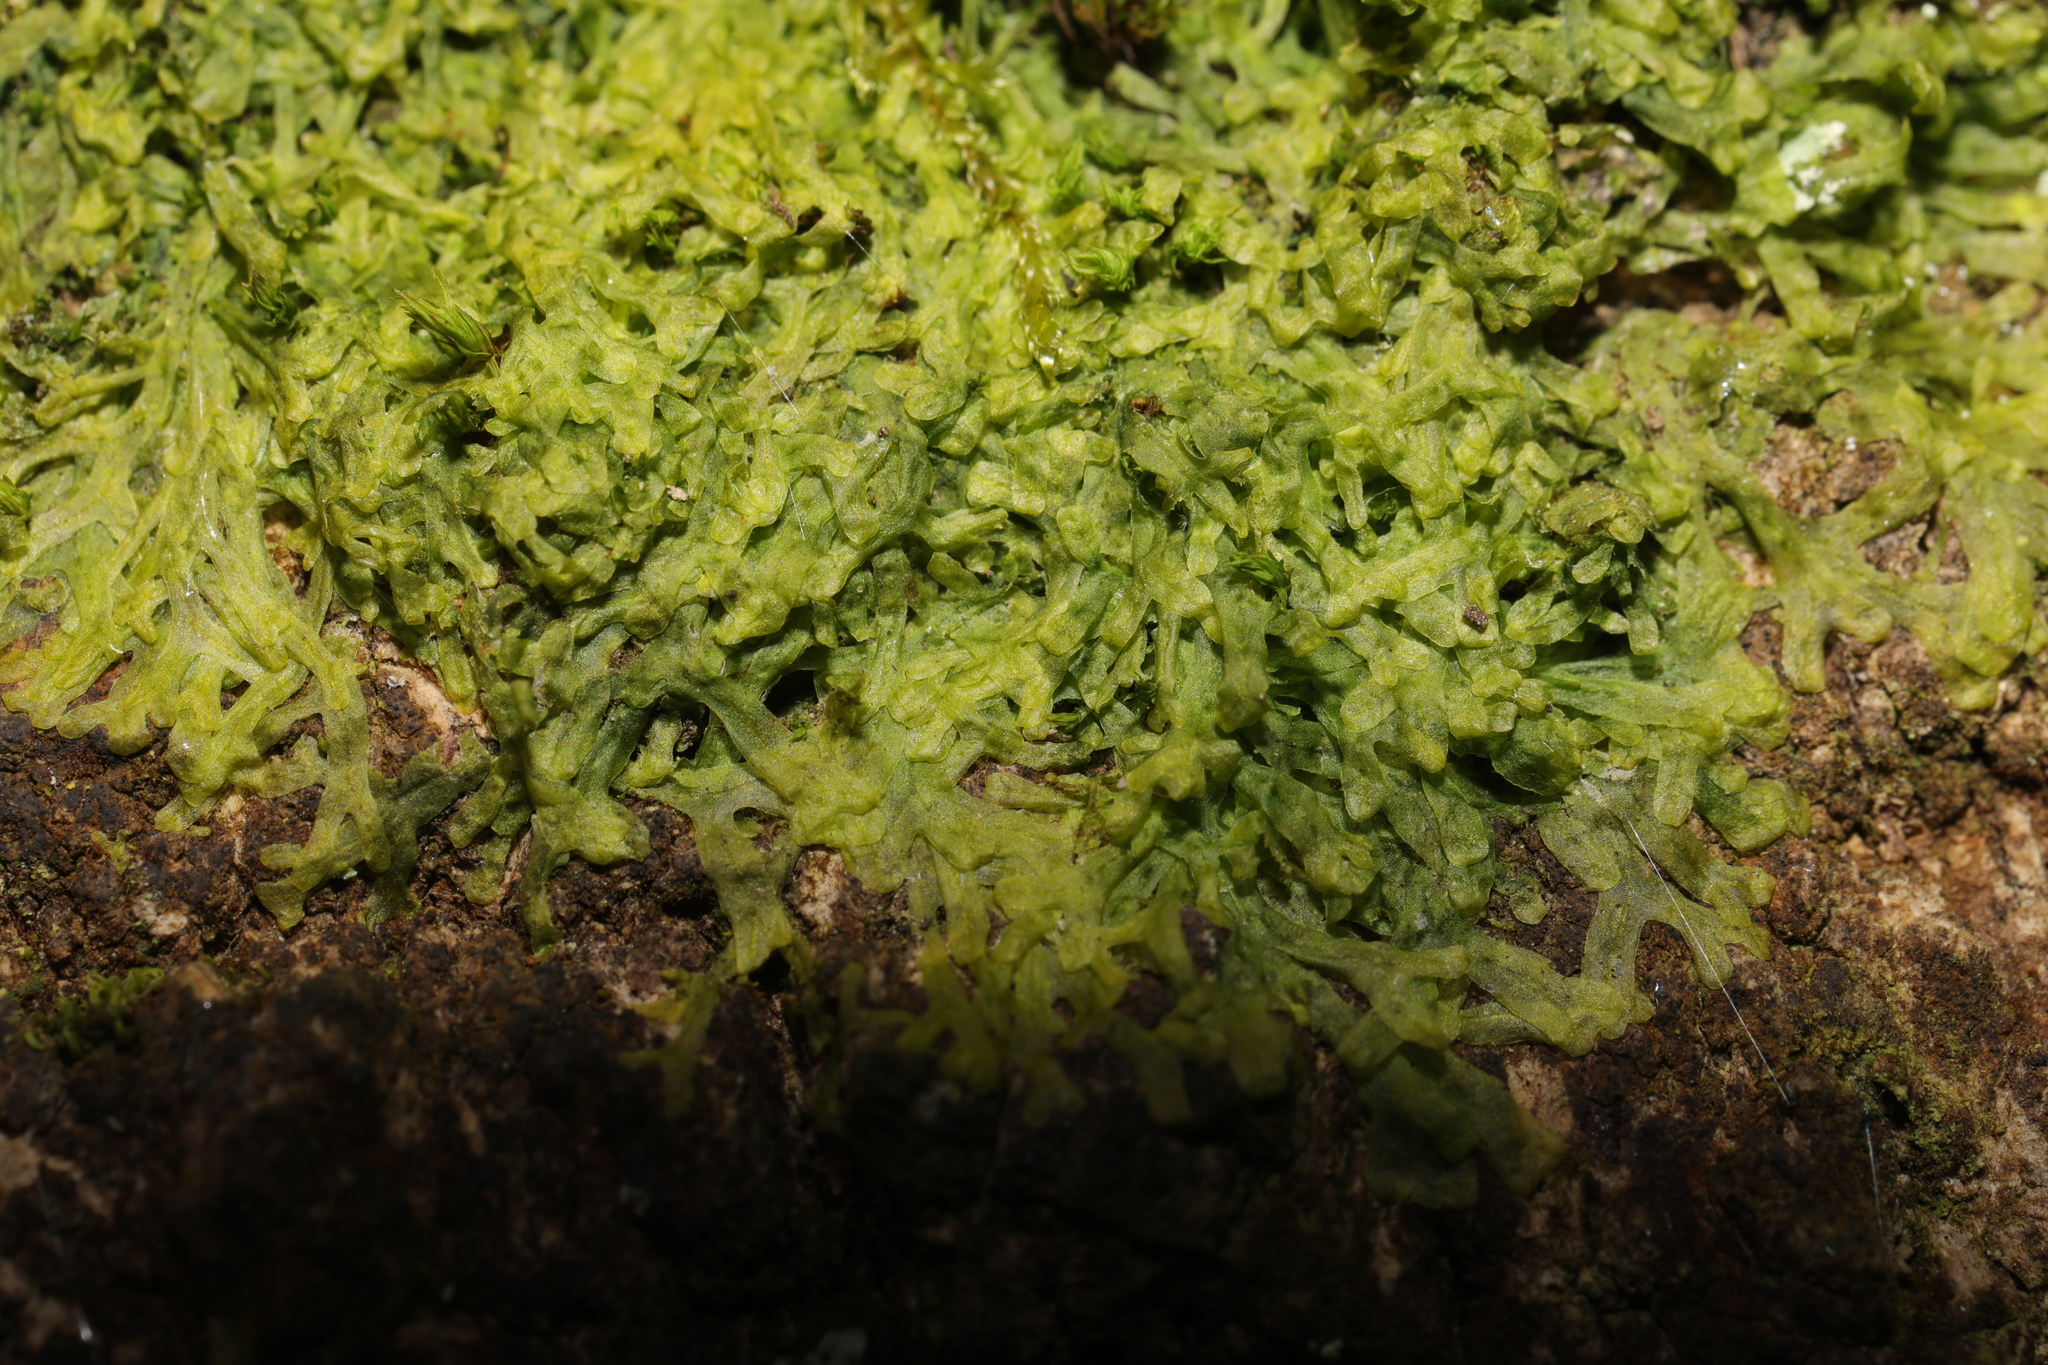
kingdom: Plantae
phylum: Marchantiophyta
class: Jungermanniopsida
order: Metzgeriales
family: Metzgeriaceae
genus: Metzgeria
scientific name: Metzgeria furcata
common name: Forked veilwort
